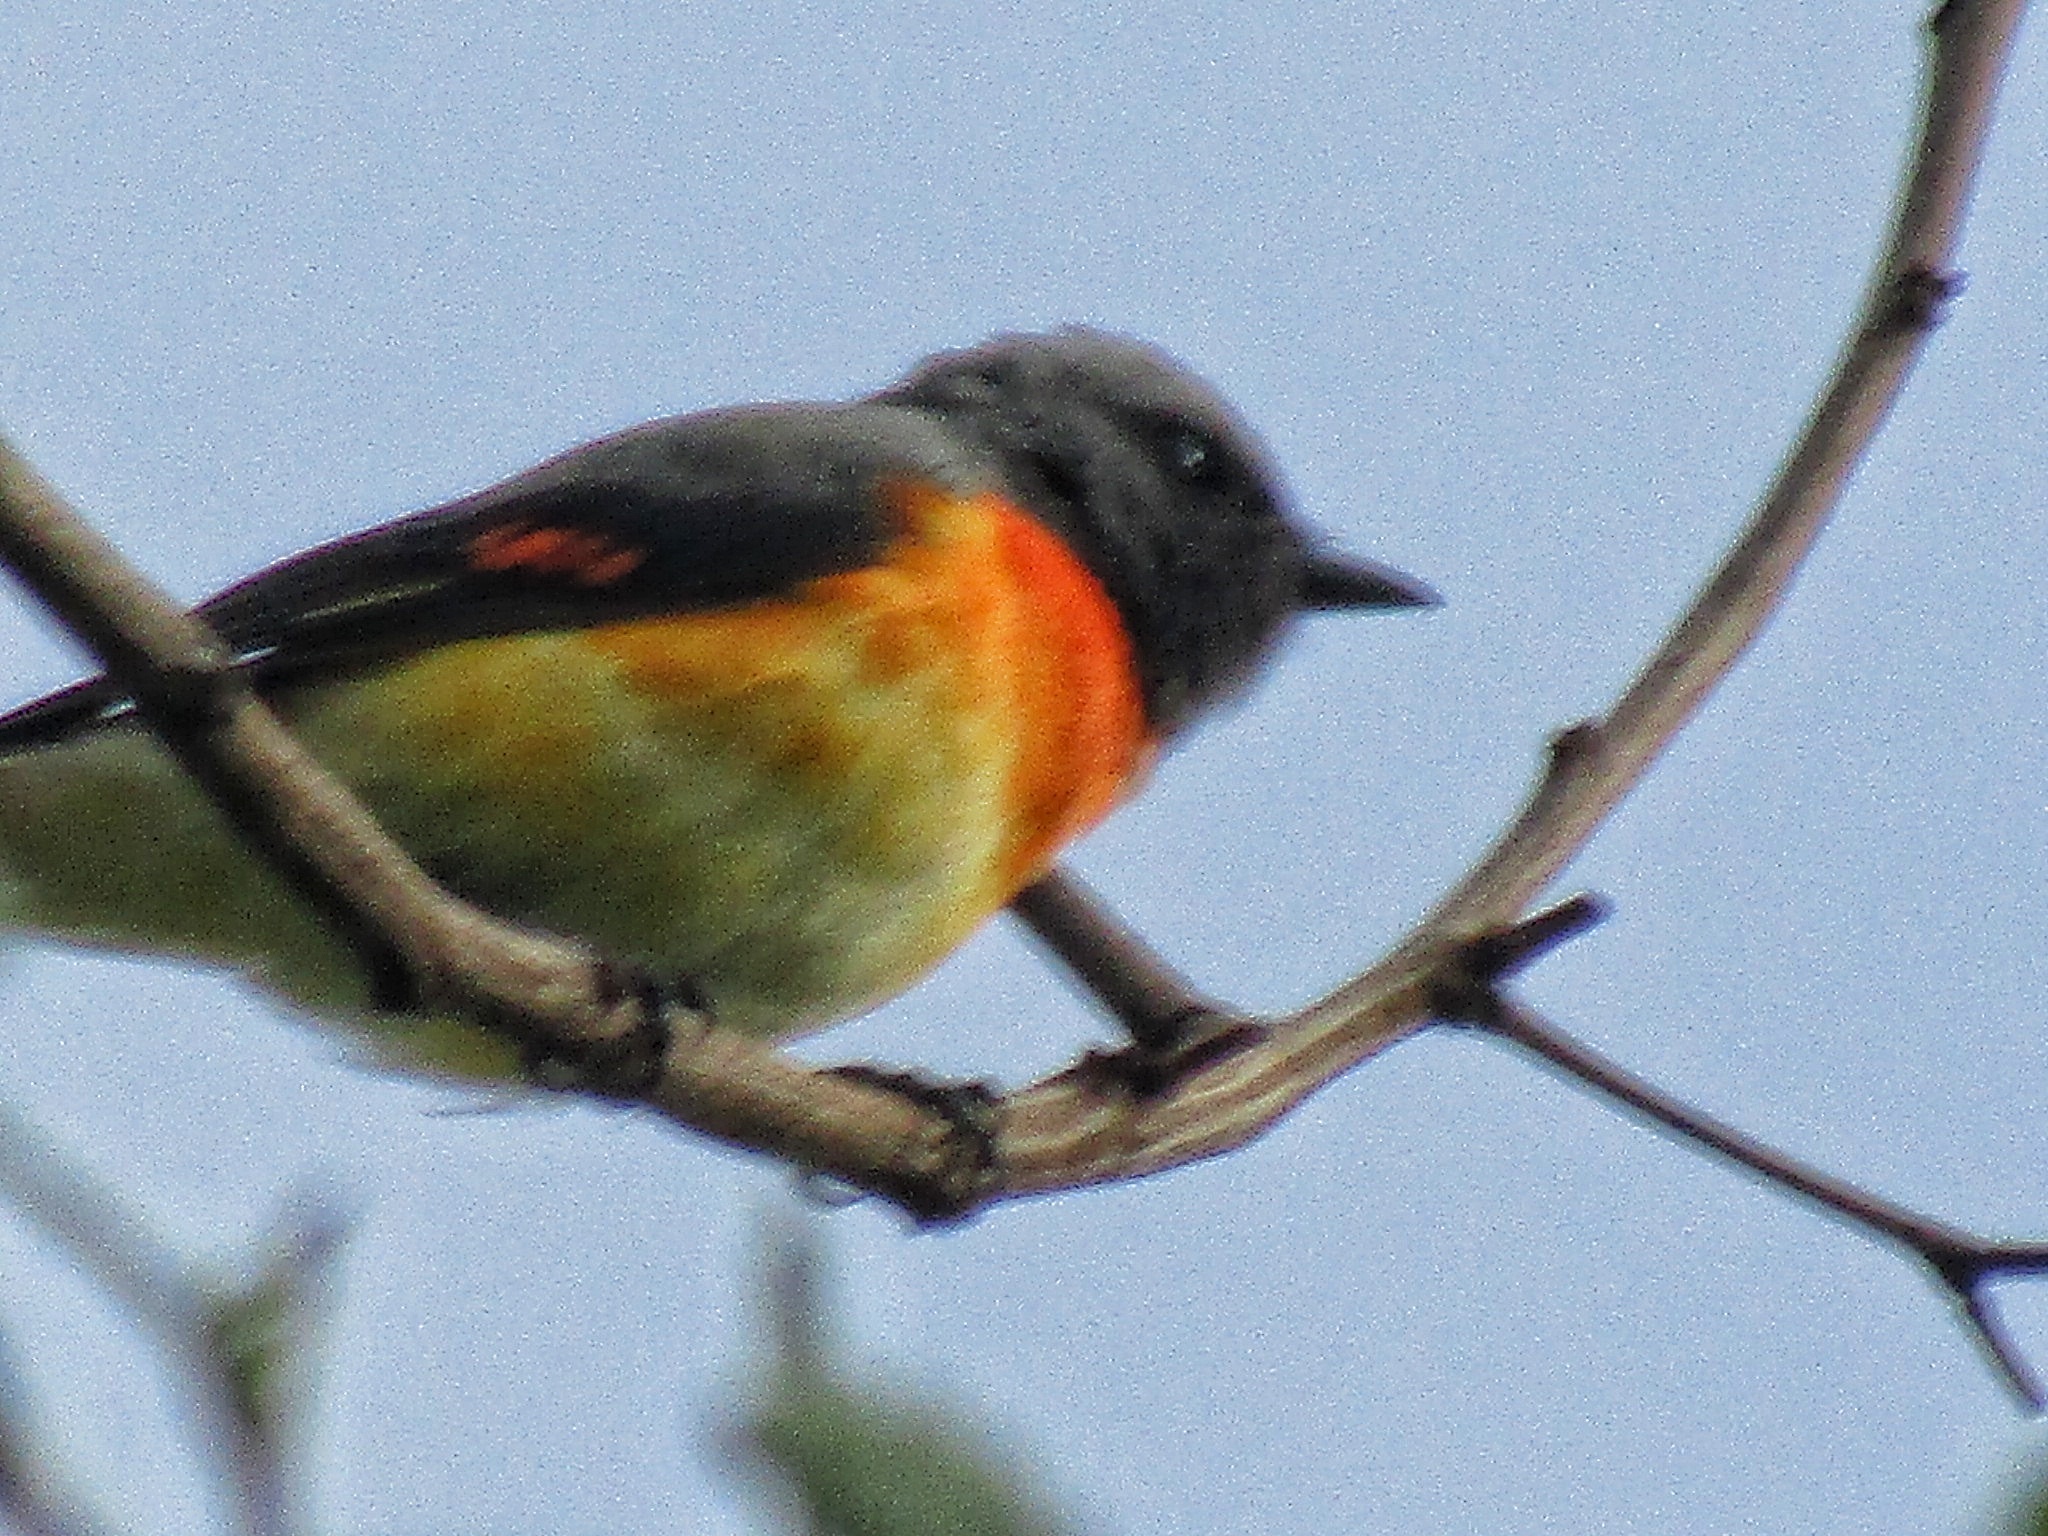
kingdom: Animalia
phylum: Chordata
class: Aves
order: Passeriformes
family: Campephagidae
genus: Pericrocotus
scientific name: Pericrocotus cinnamomeus
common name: Small minivet
